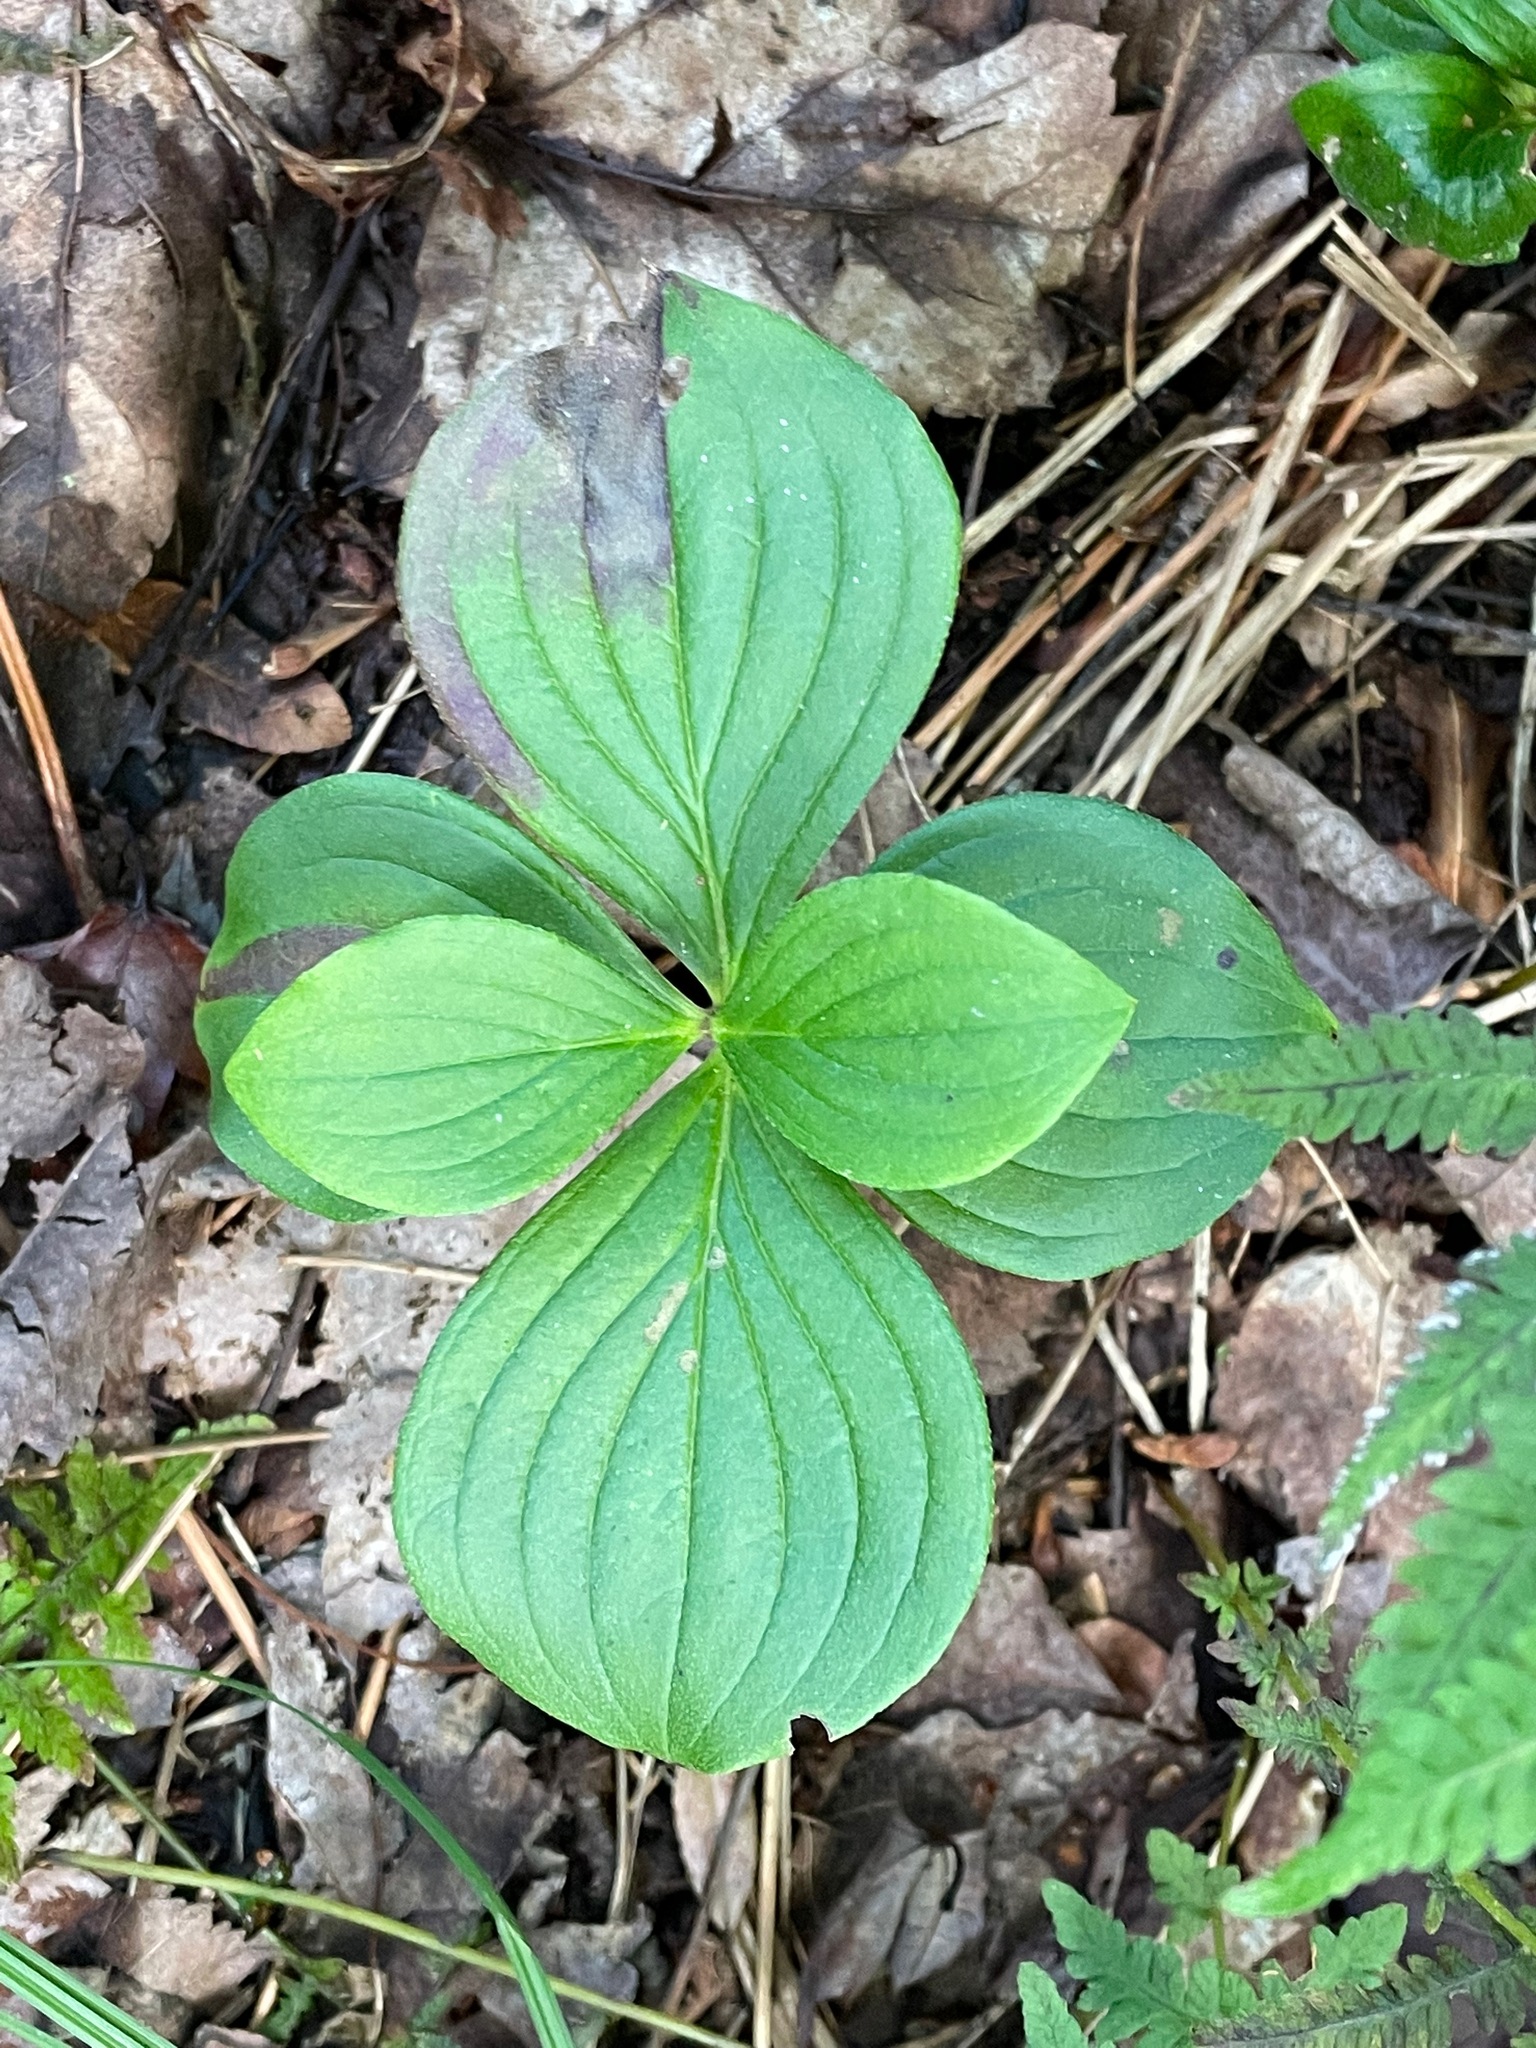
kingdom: Plantae
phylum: Tracheophyta
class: Magnoliopsida
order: Cornales
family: Cornaceae
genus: Cornus
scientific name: Cornus canadensis
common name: Creeping dogwood
